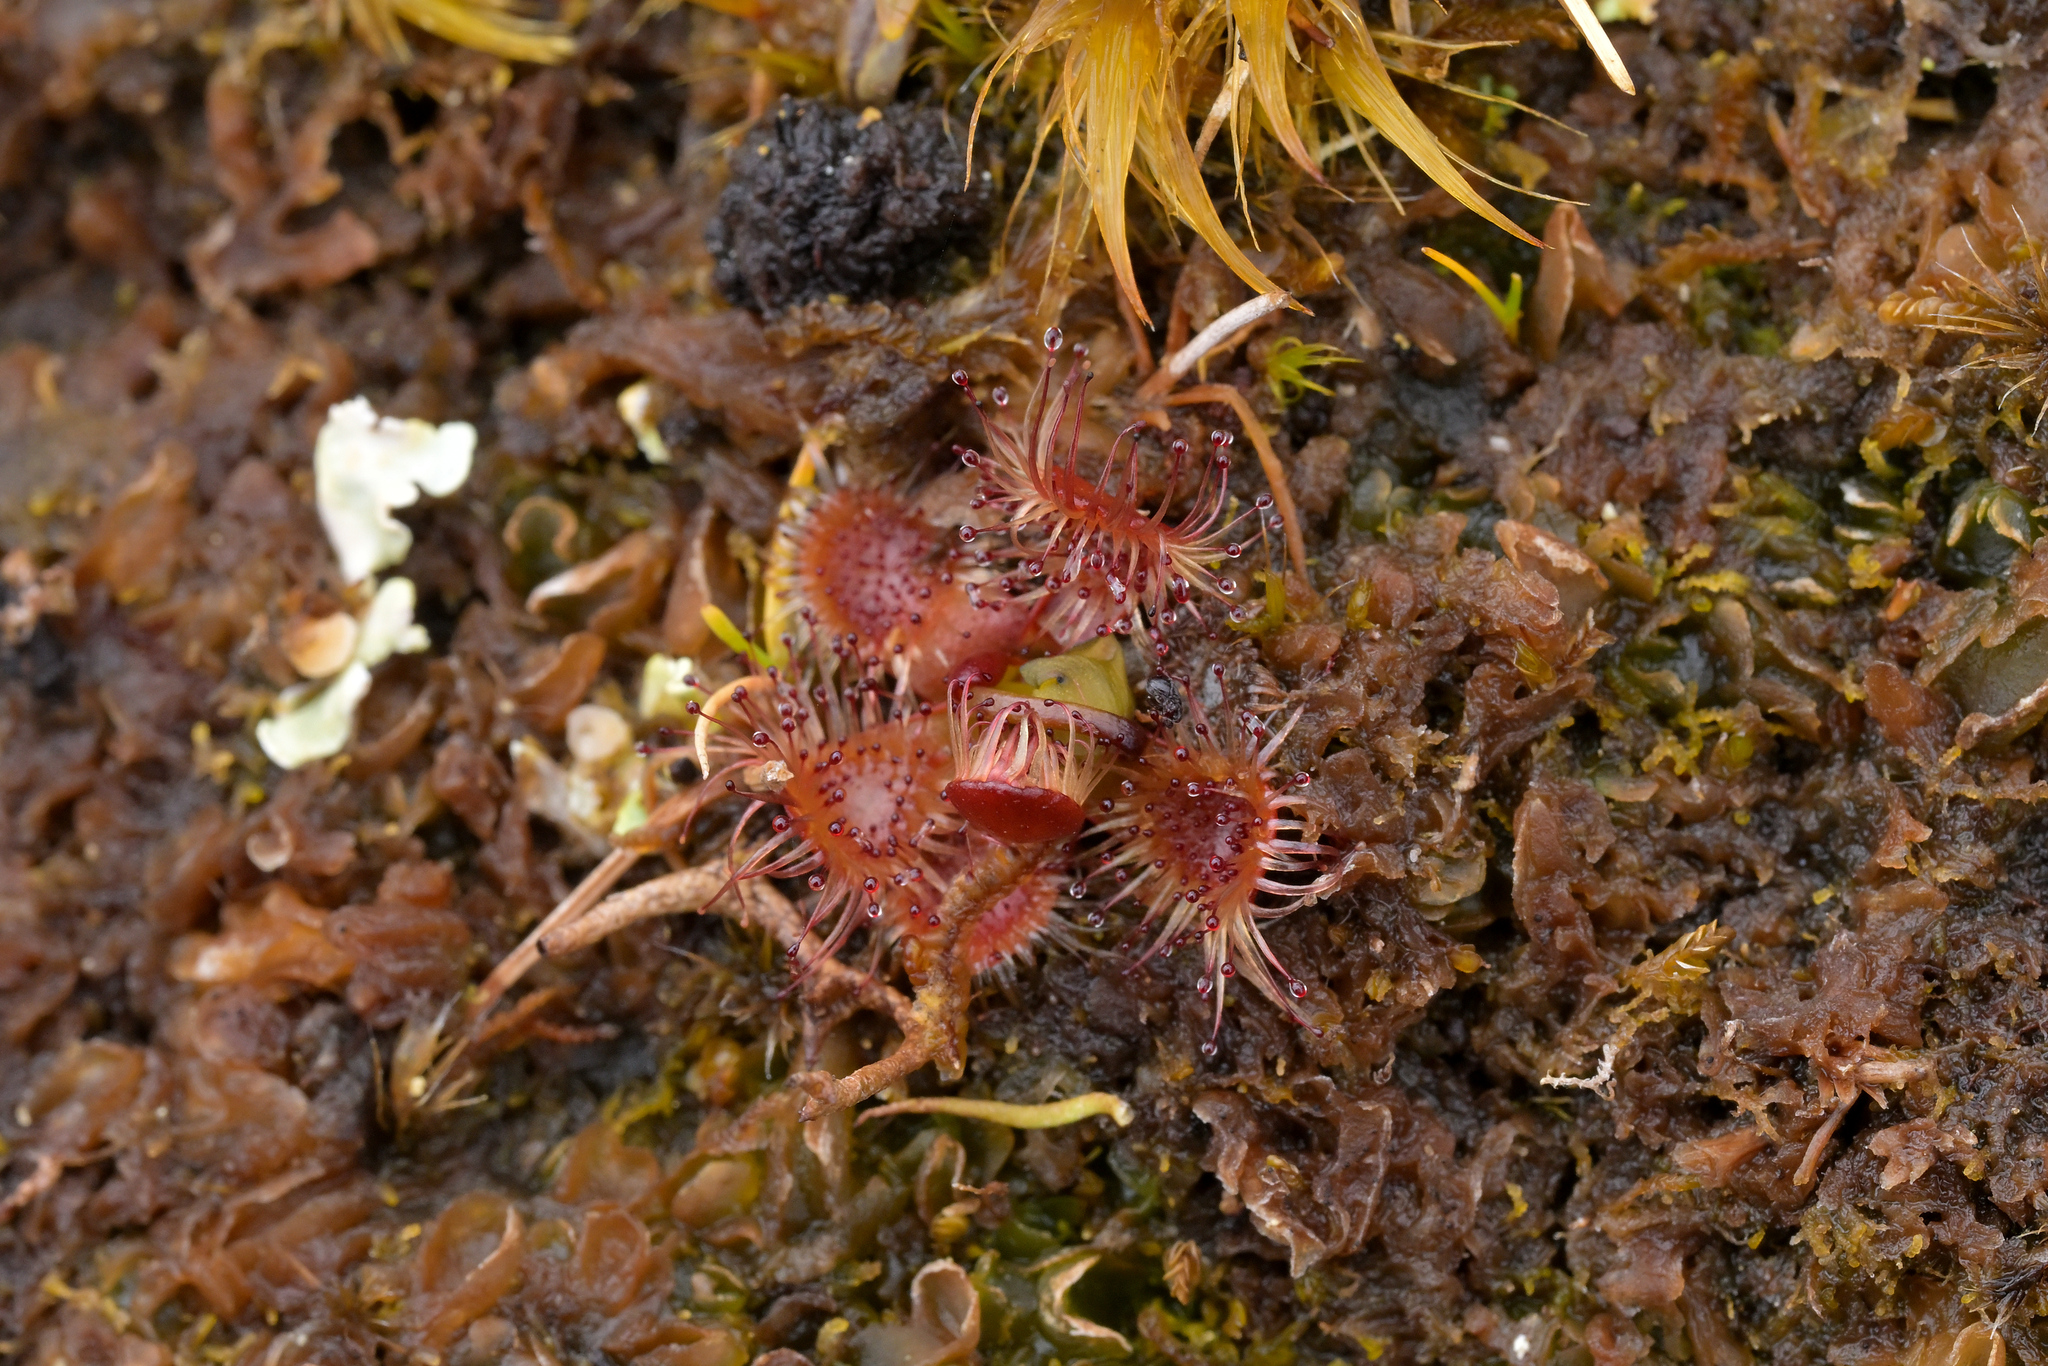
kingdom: Plantae
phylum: Tracheophyta
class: Magnoliopsida
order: Caryophyllales
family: Droseraceae
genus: Drosera
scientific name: Drosera stenopetala
